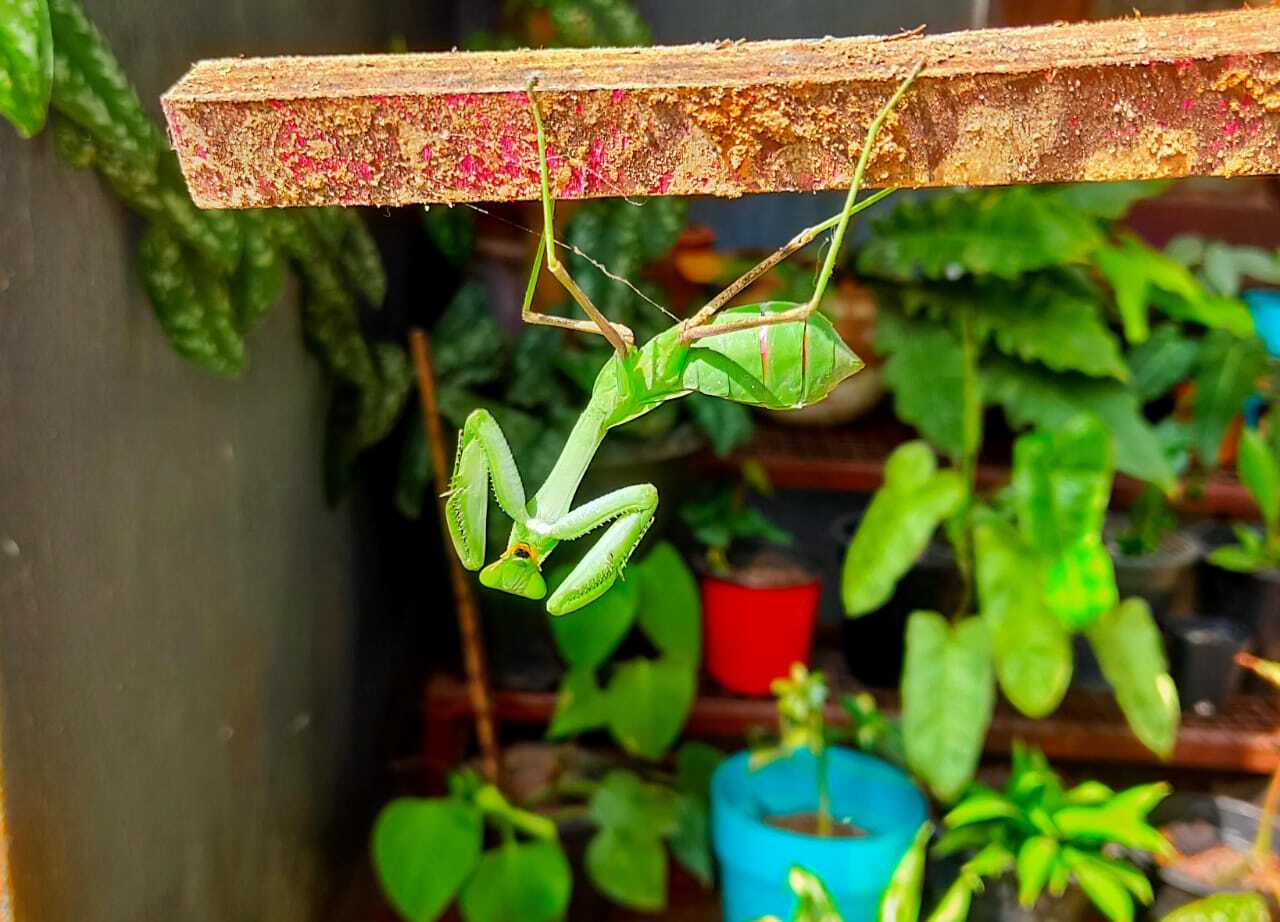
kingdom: Animalia
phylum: Arthropoda
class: Insecta
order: Mantodea
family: Mantidae
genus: Hierodula
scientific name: Hierodula membranacea
